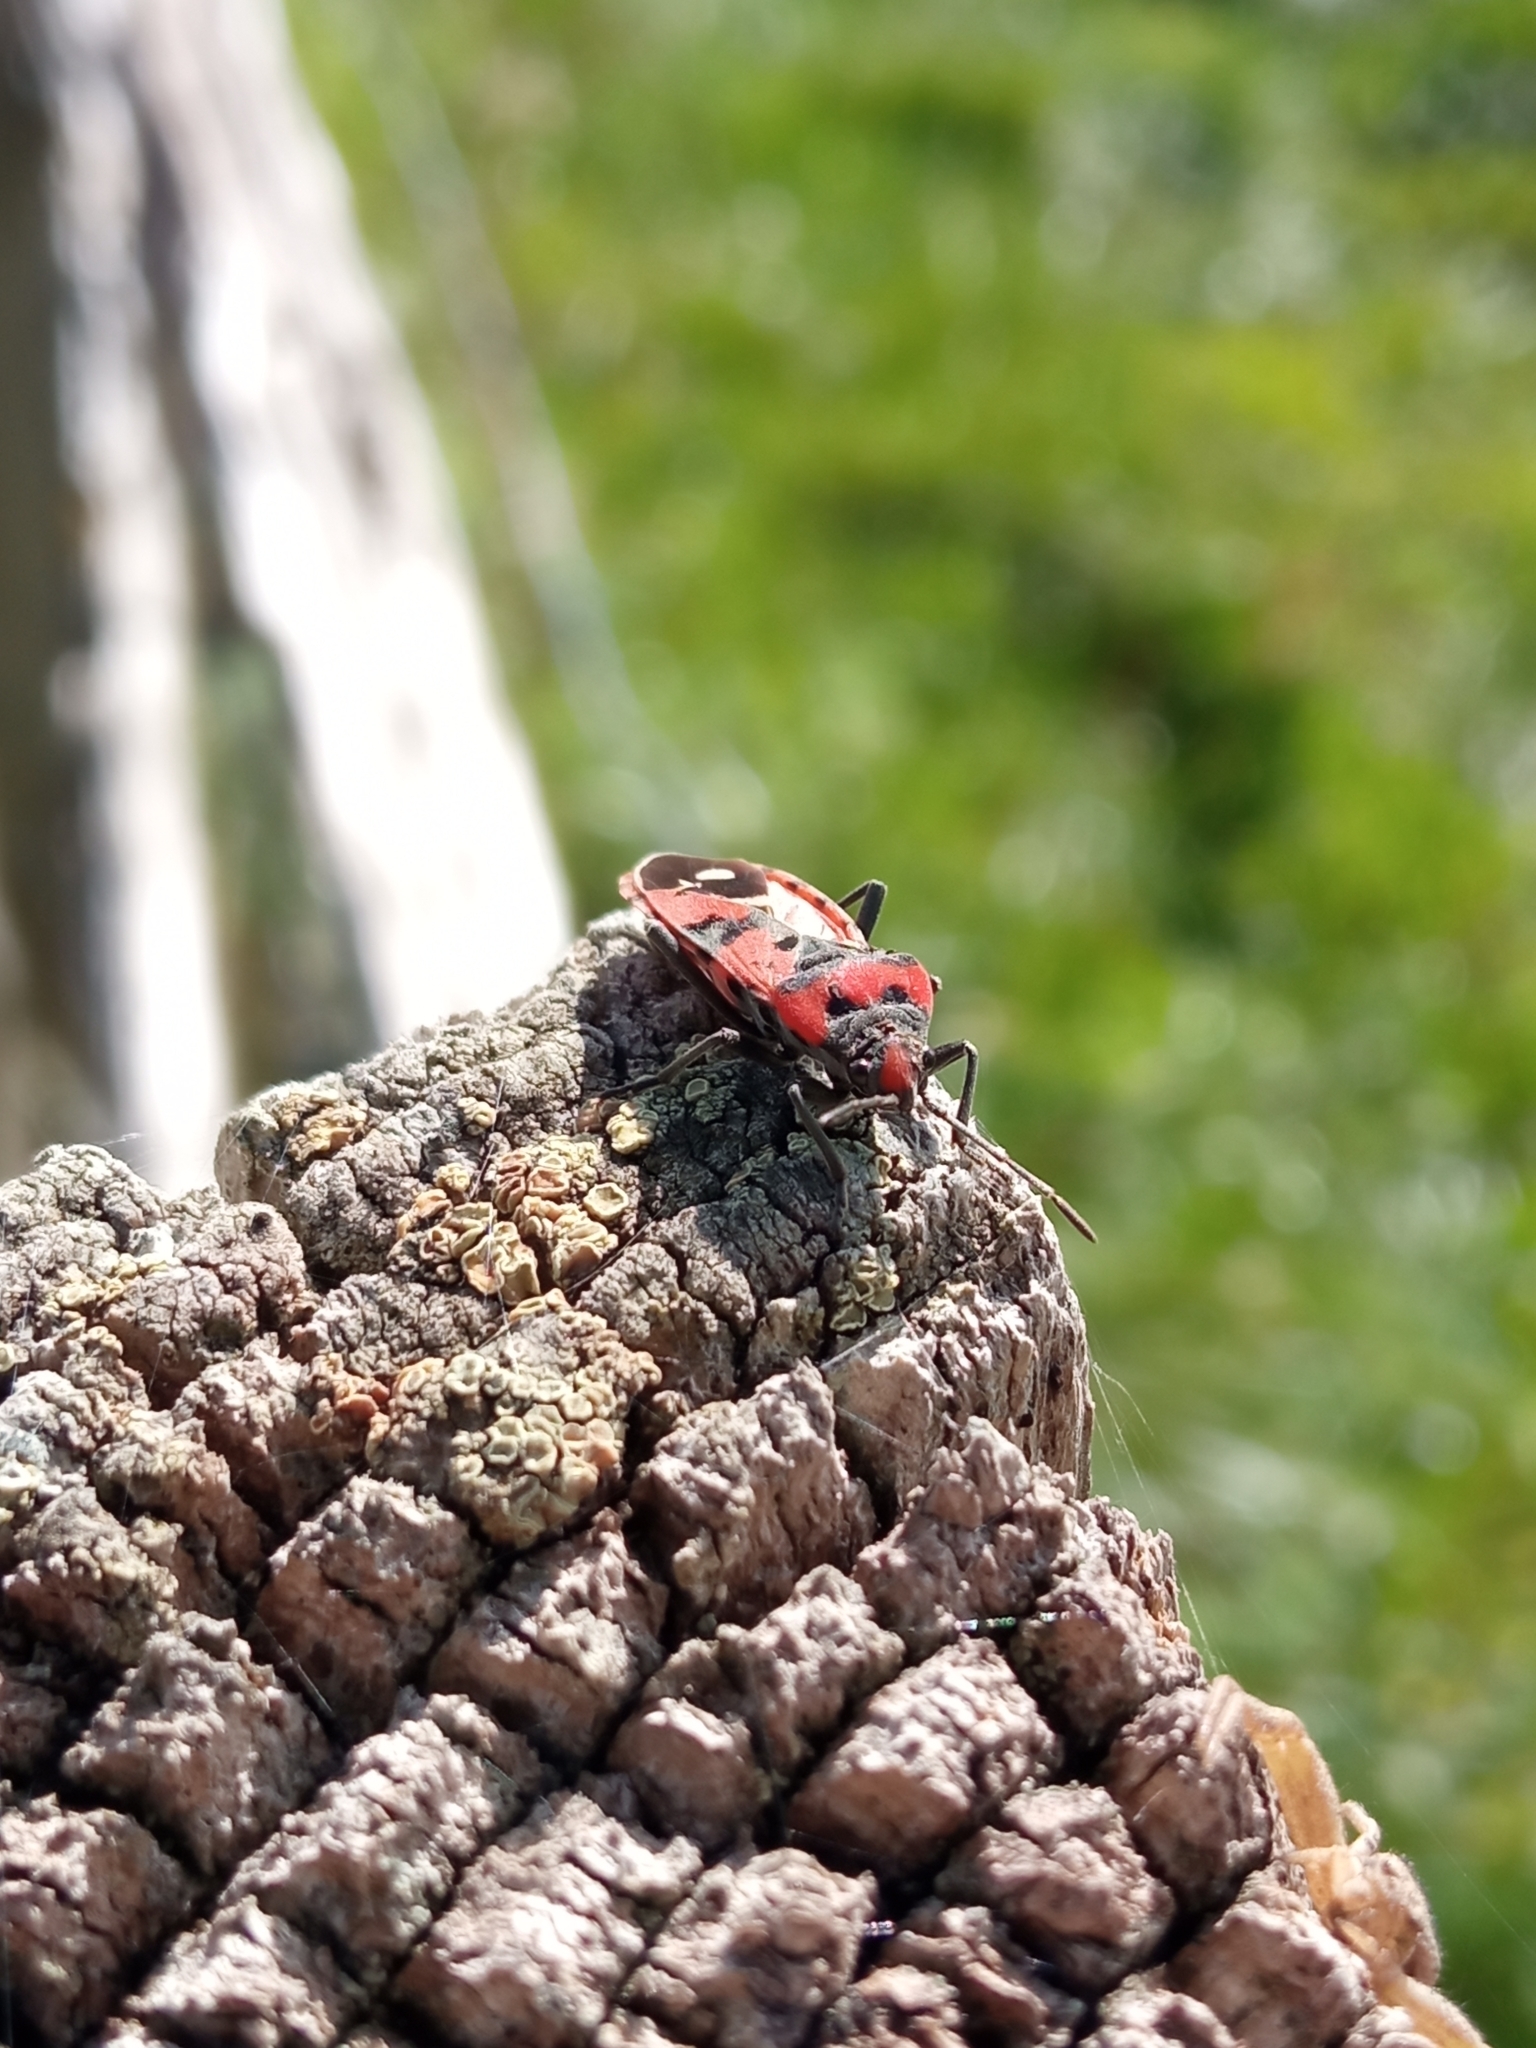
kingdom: Animalia
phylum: Arthropoda
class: Insecta
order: Hemiptera
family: Lygaeidae
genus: Lygaeus
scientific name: Lygaeus equestris
